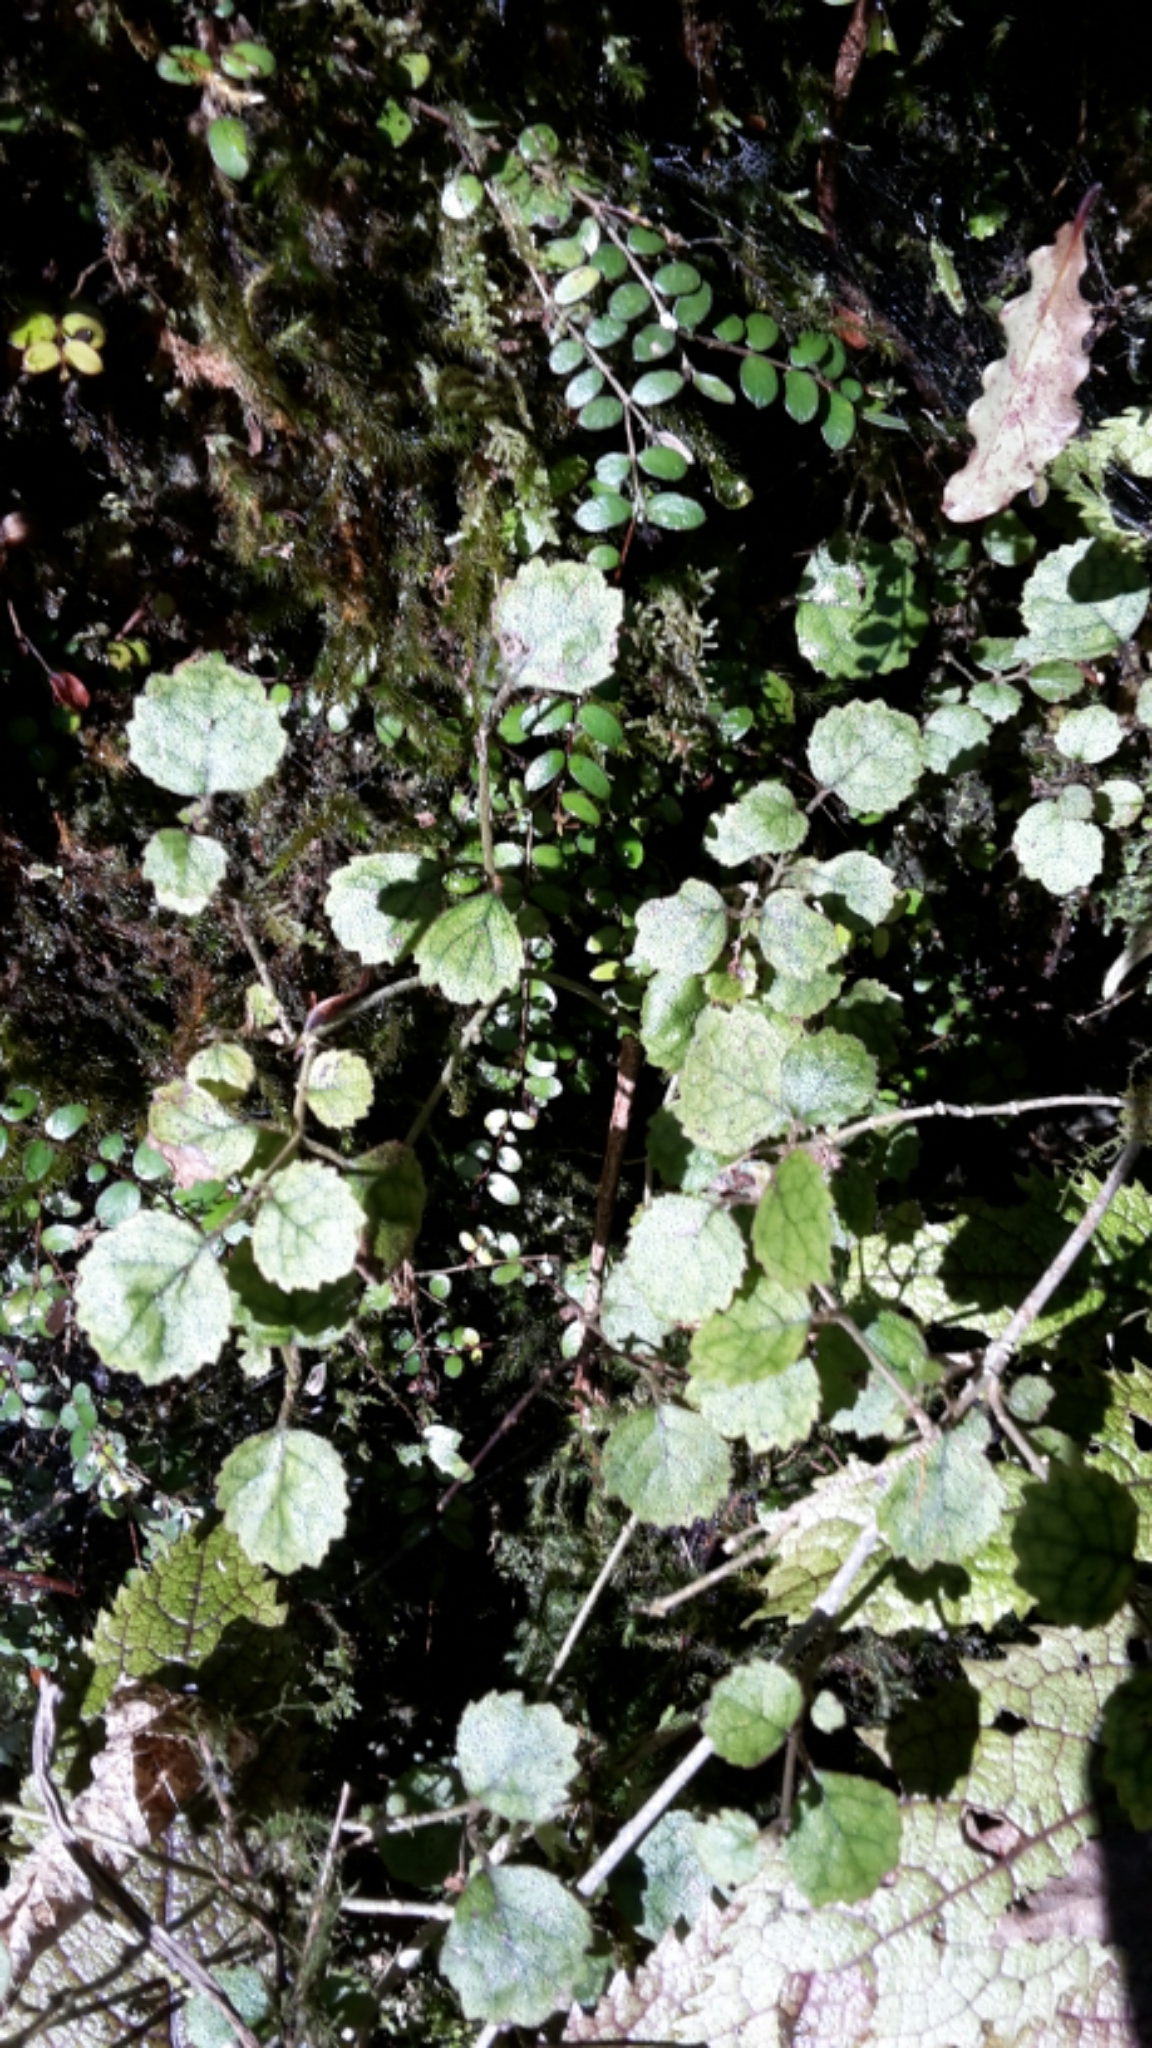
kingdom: Plantae
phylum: Tracheophyta
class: Magnoliopsida
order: Lamiales
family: Gesneriaceae
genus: Rhabdothamnus
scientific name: Rhabdothamnus solandri
